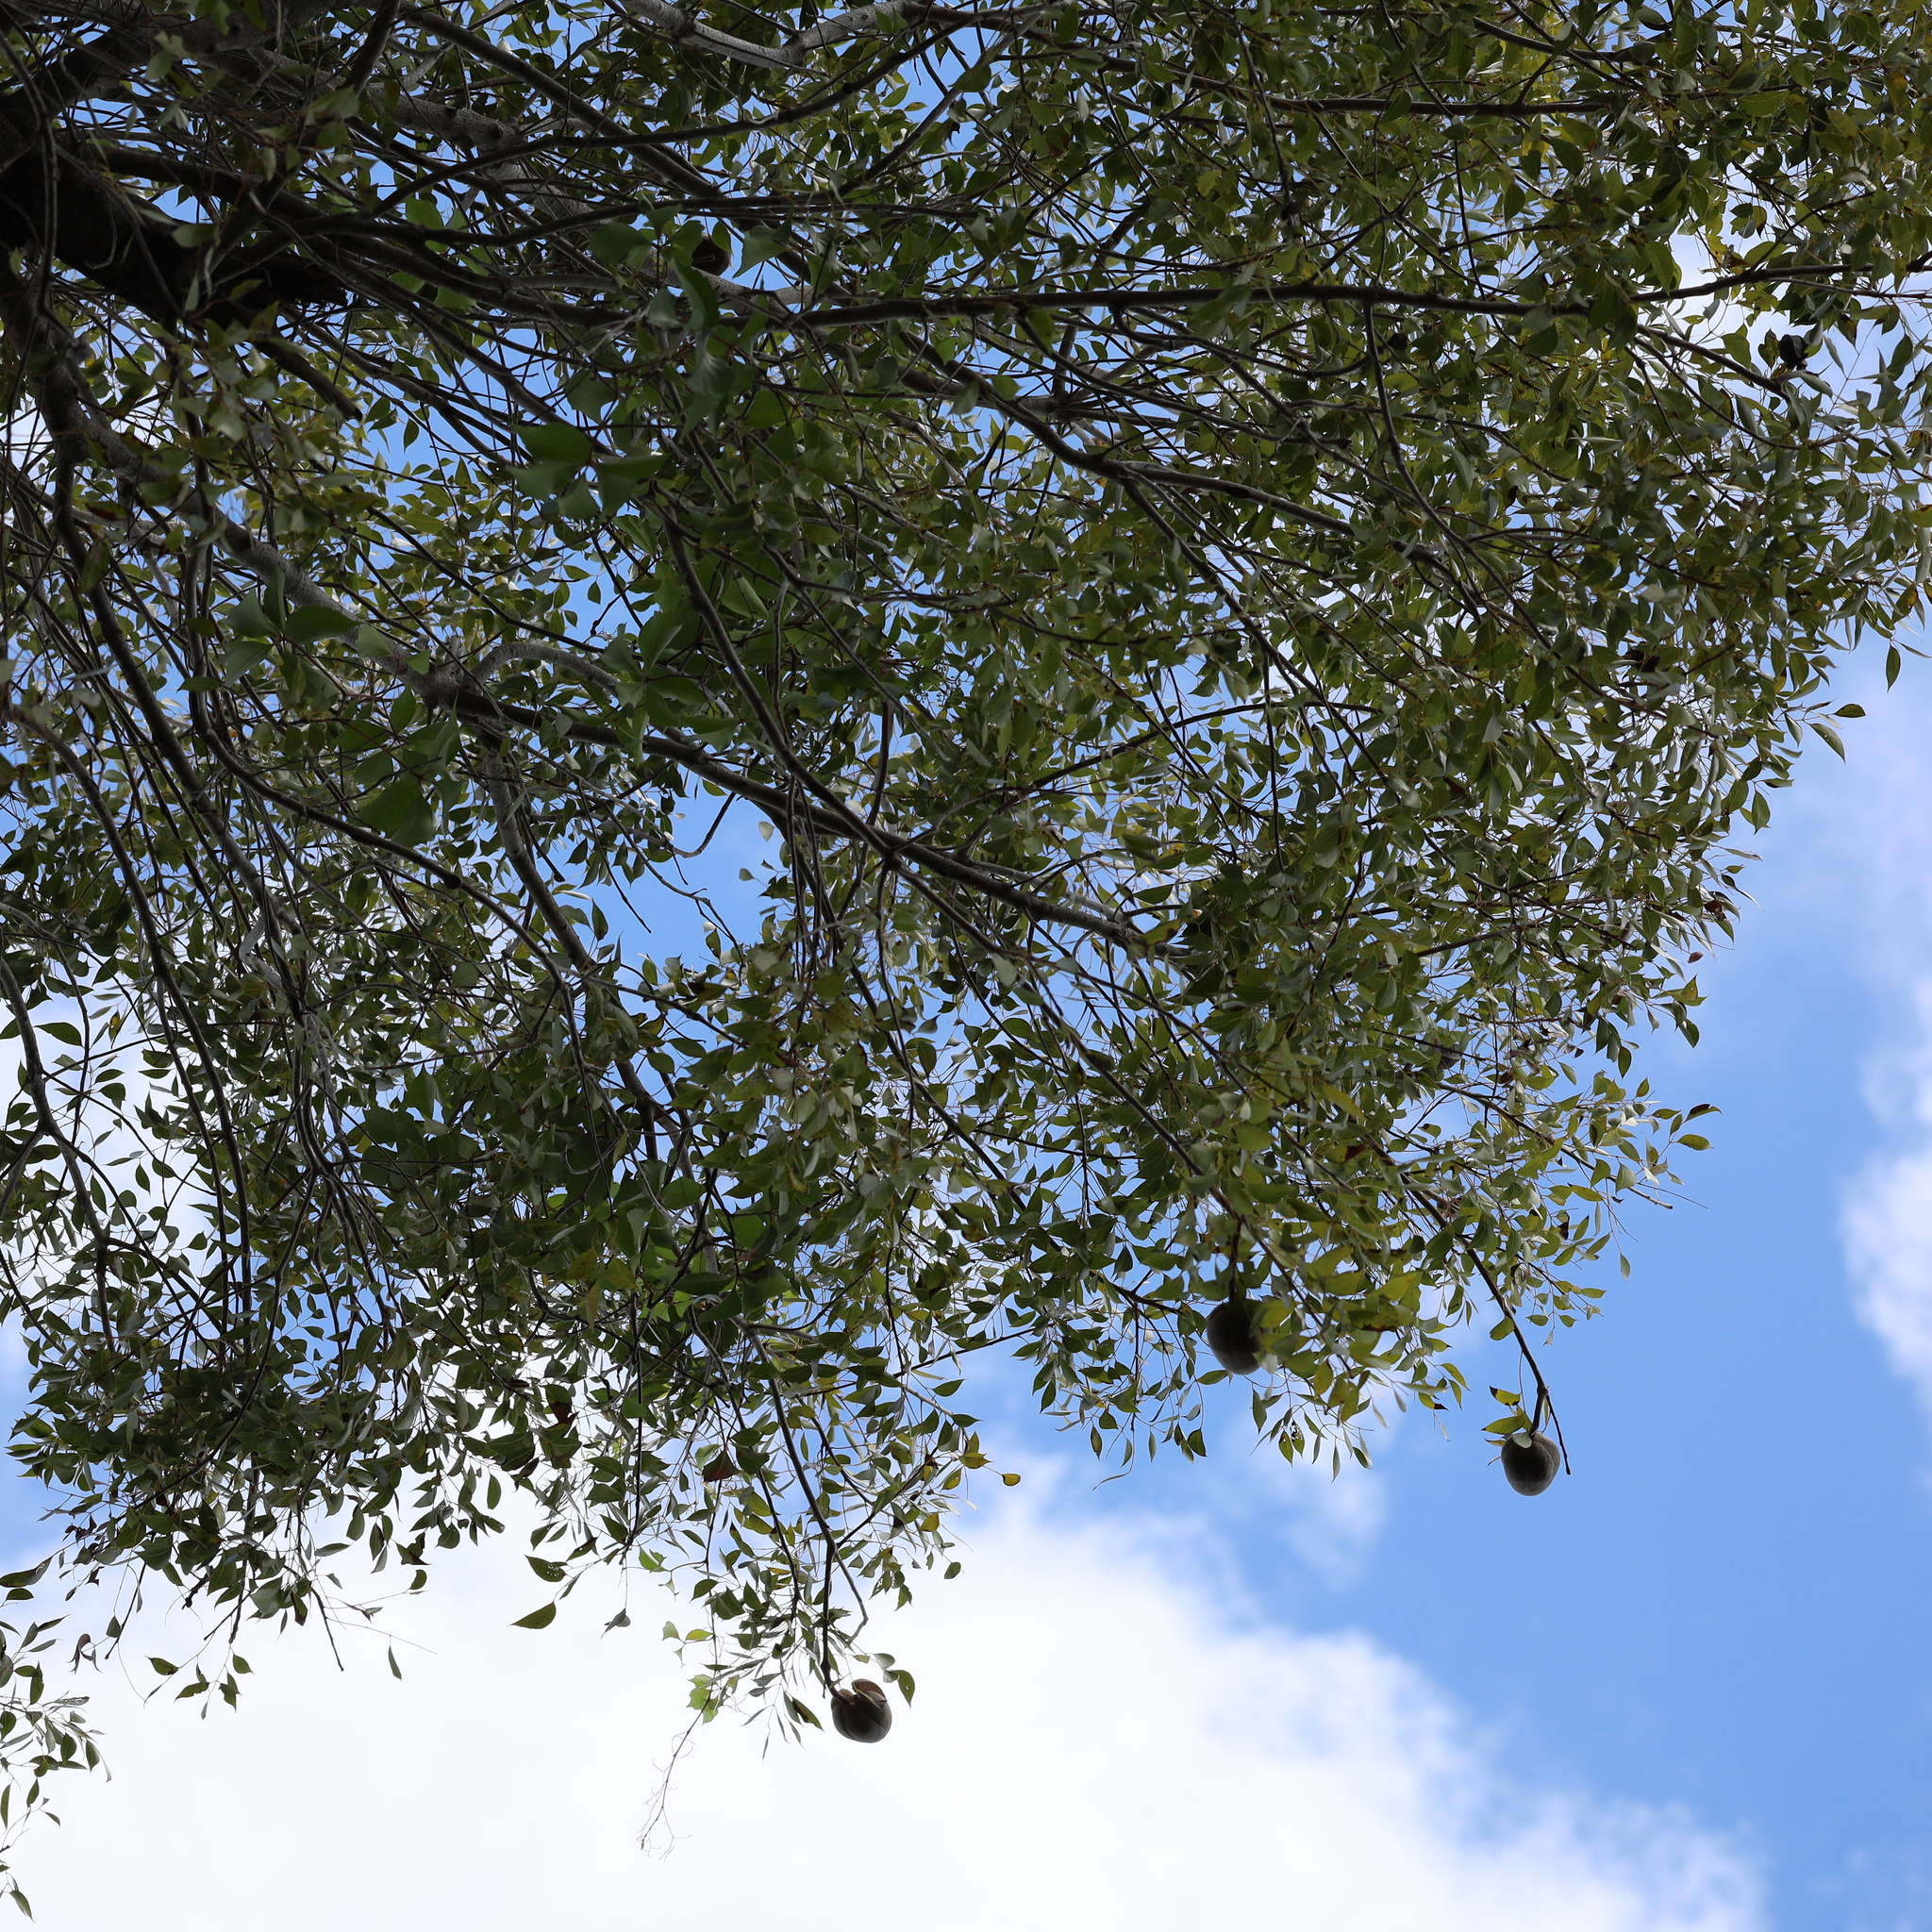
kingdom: Plantae
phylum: Tracheophyta
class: Magnoliopsida
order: Sapindales
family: Meliaceae
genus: Swietenia
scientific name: Swietenia mahagoni
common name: West indian mahogany
